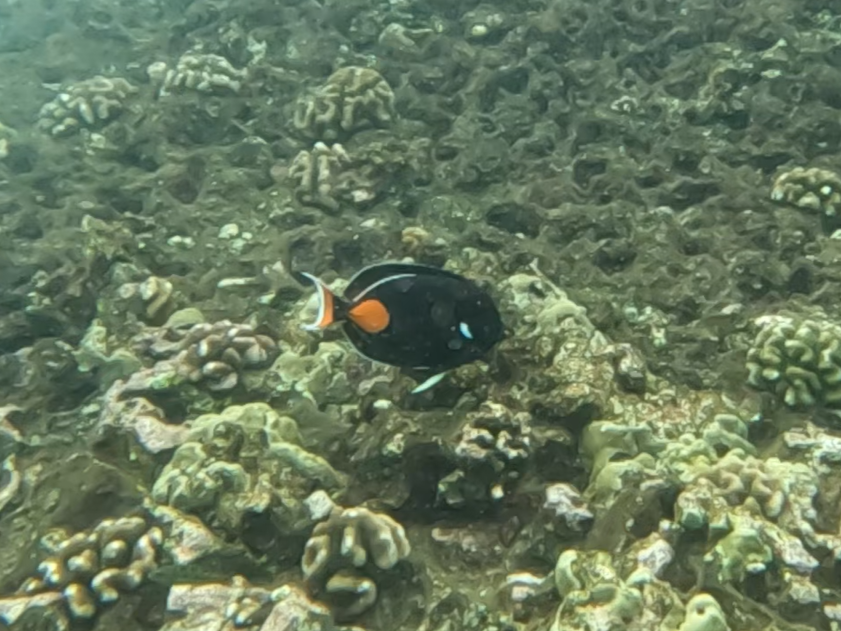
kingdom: Animalia
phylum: Chordata
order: Perciformes
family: Acanthuridae
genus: Acanthurus
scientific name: Acanthurus achilles
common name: Achilles tang
